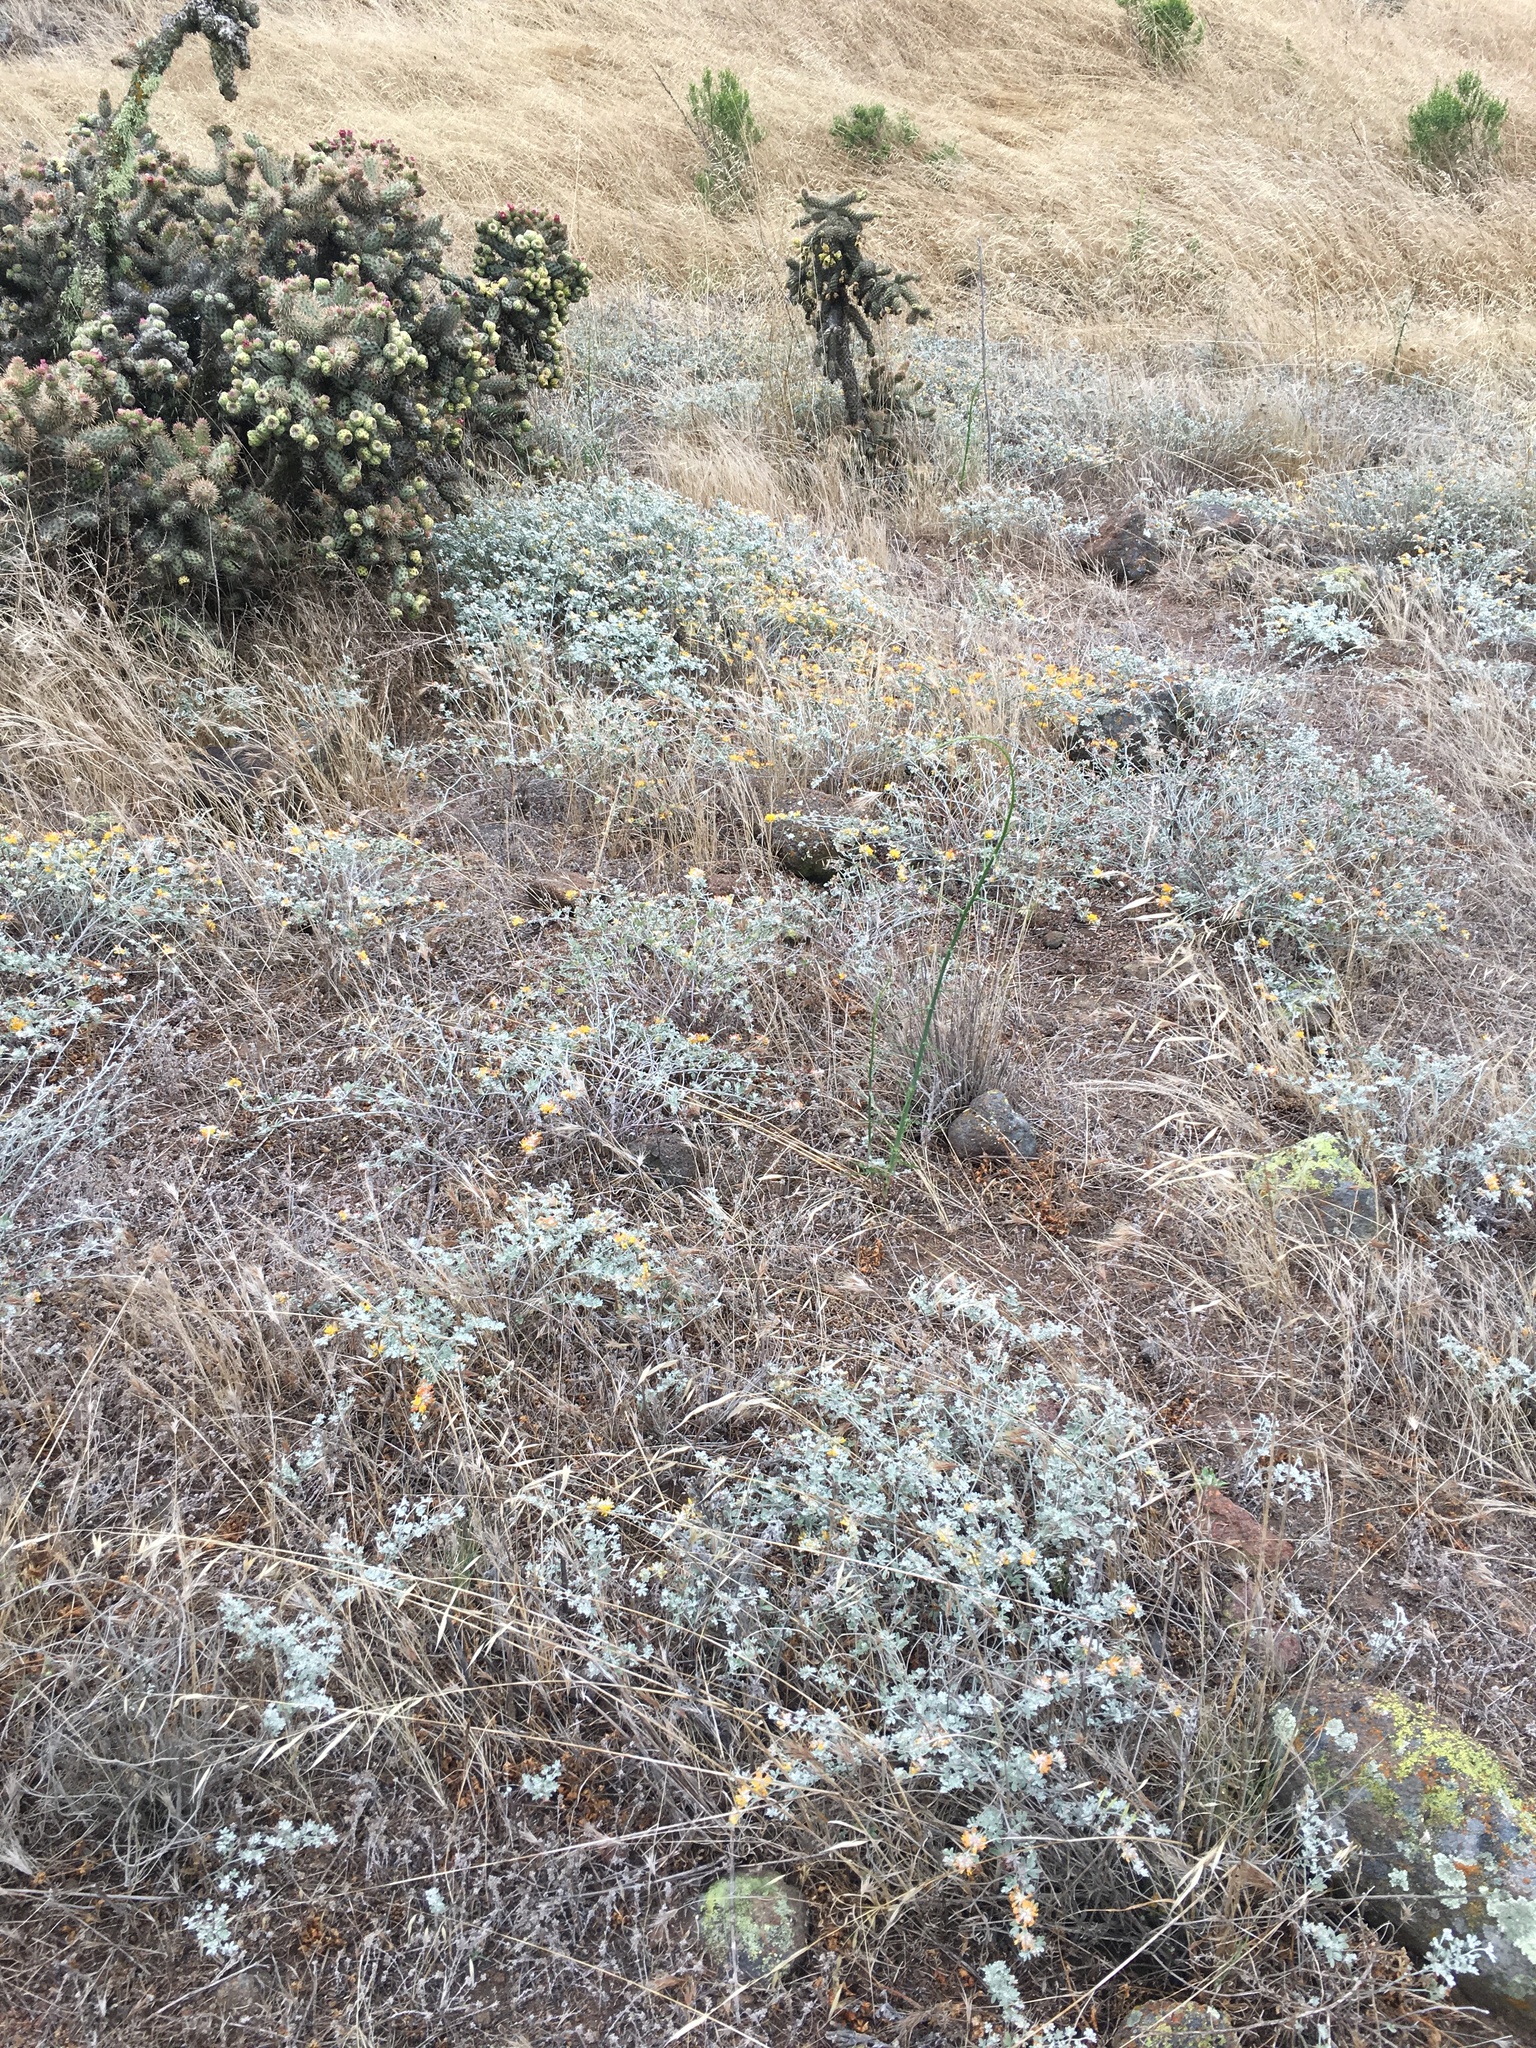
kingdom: Plantae
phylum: Tracheophyta
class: Magnoliopsida
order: Fabales
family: Fabaceae
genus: Acmispon
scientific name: Acmispon argophyllus
